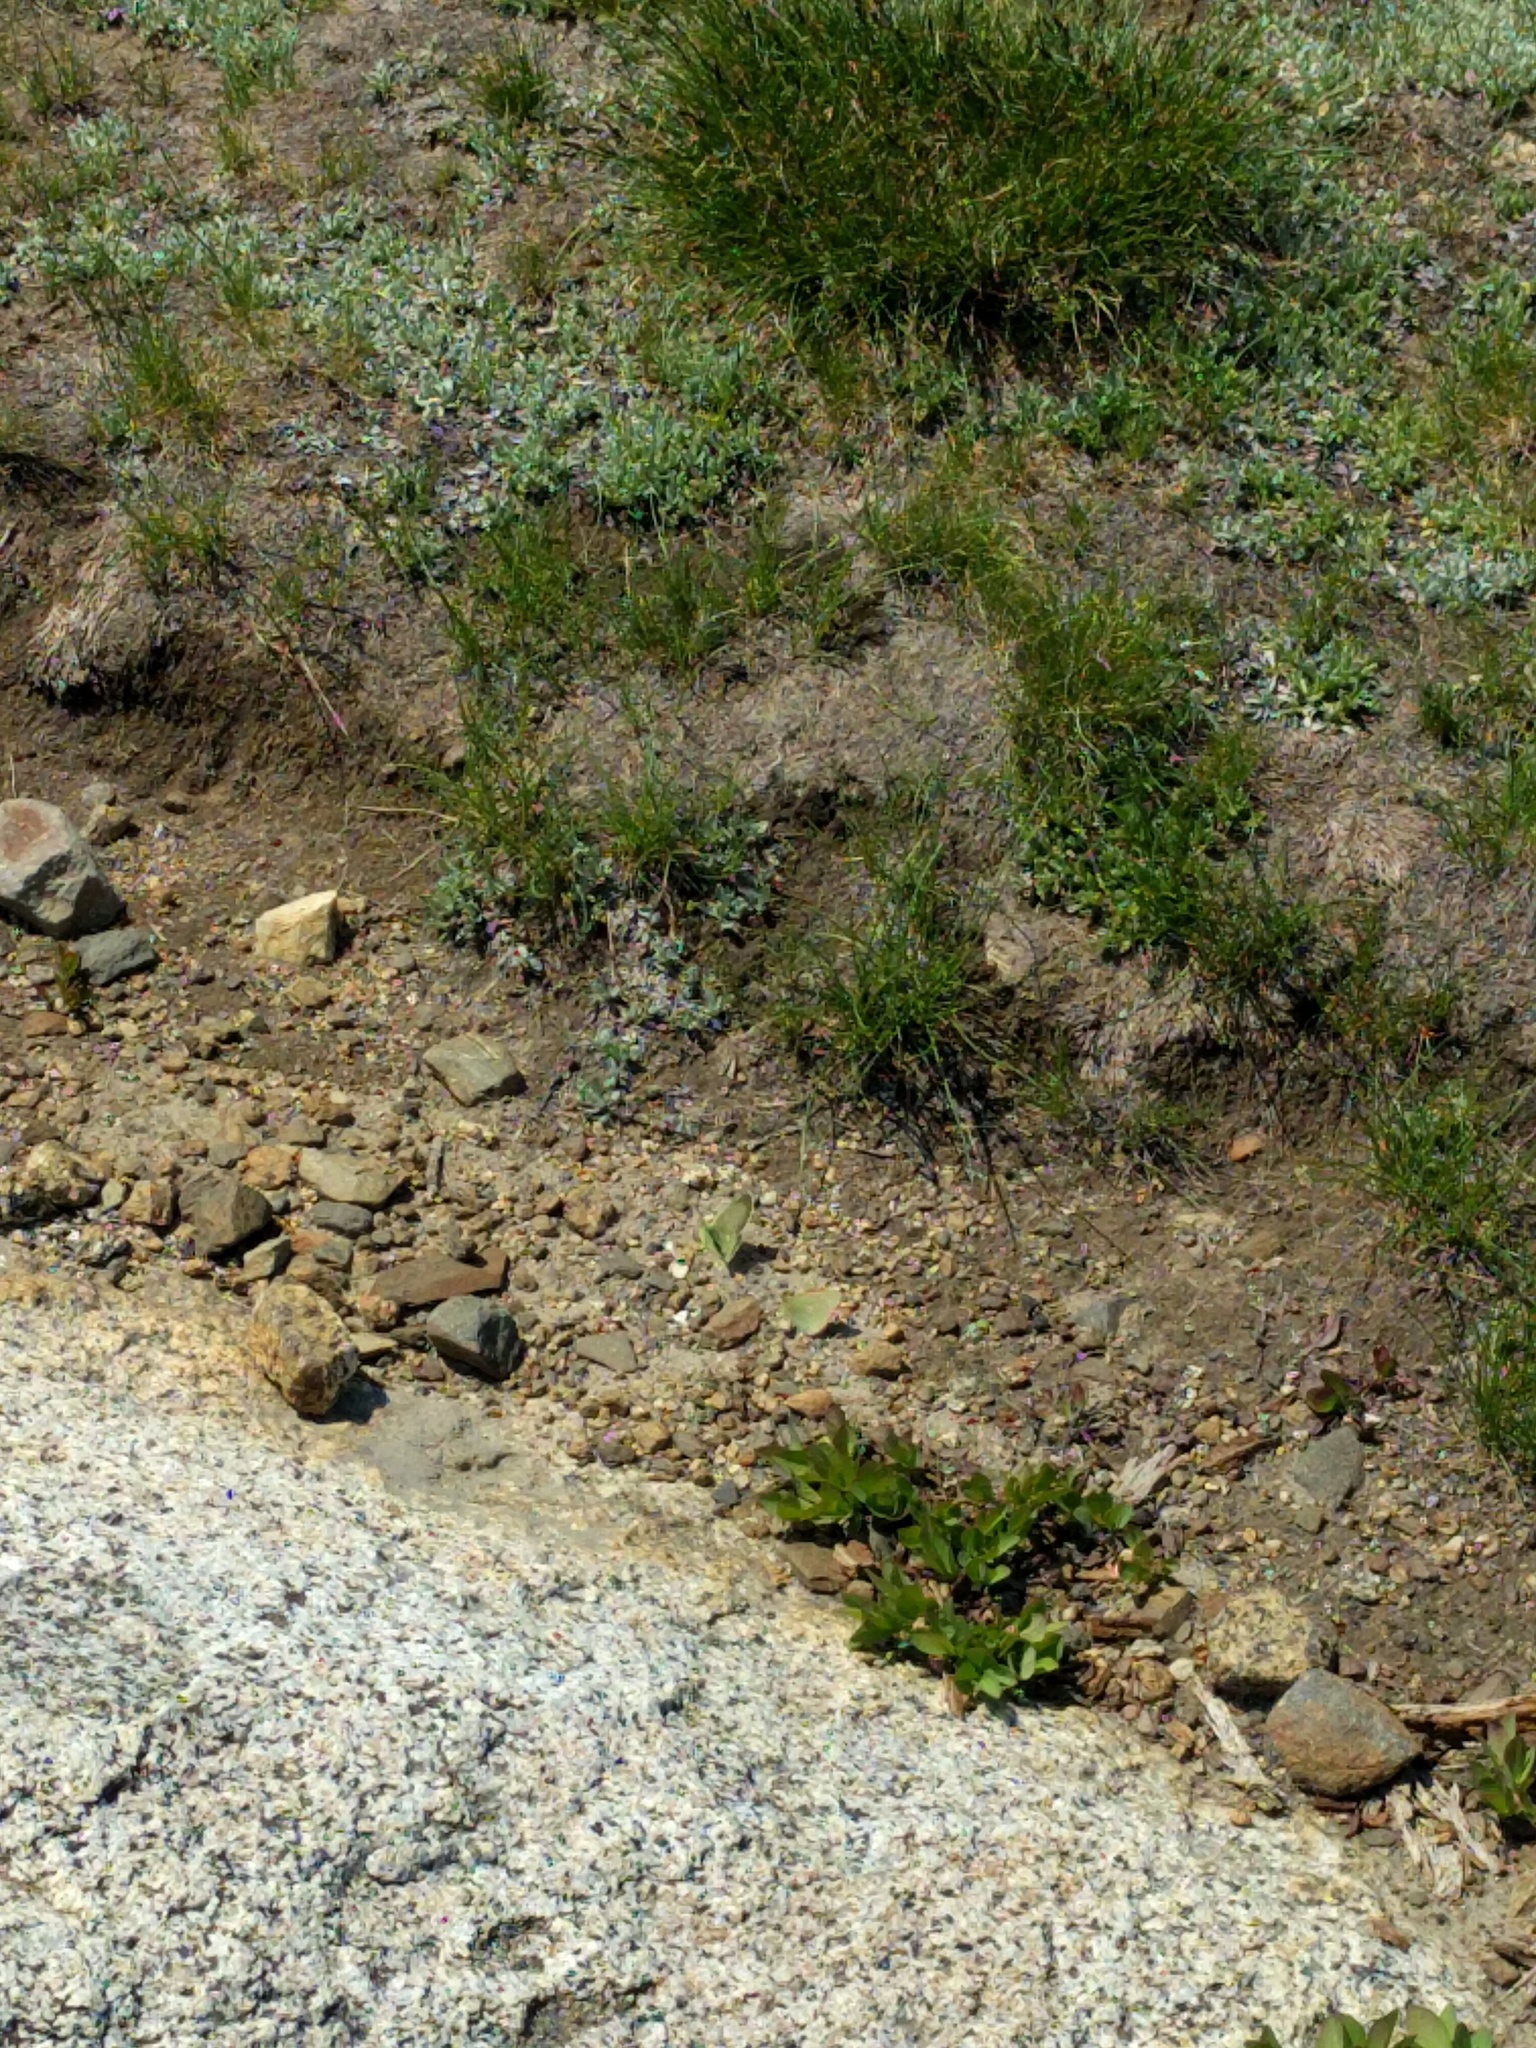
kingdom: Animalia
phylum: Arthropoda
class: Insecta
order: Lepidoptera
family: Pieridae
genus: Colias
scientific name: Colias behrii
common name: Behr's sulphur
